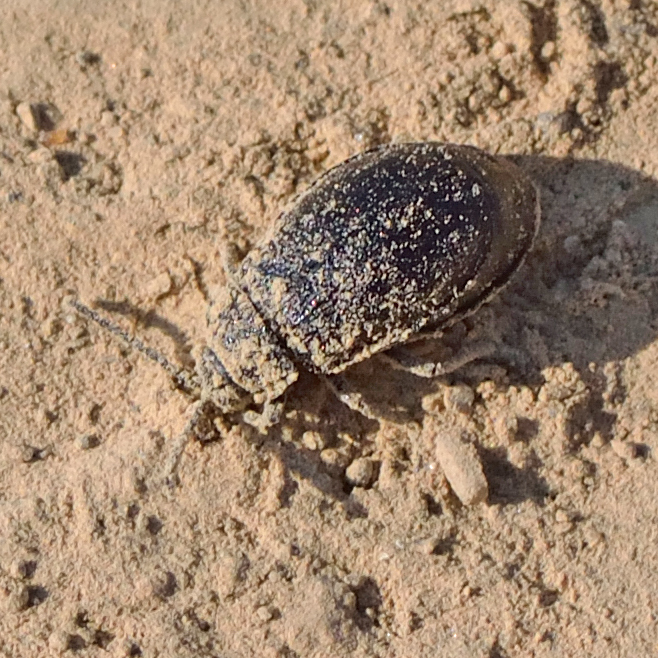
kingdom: Animalia
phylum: Arthropoda
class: Insecta
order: Coleoptera
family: Chrysomelidae
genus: Galeruca
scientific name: Galeruca tanaceti
